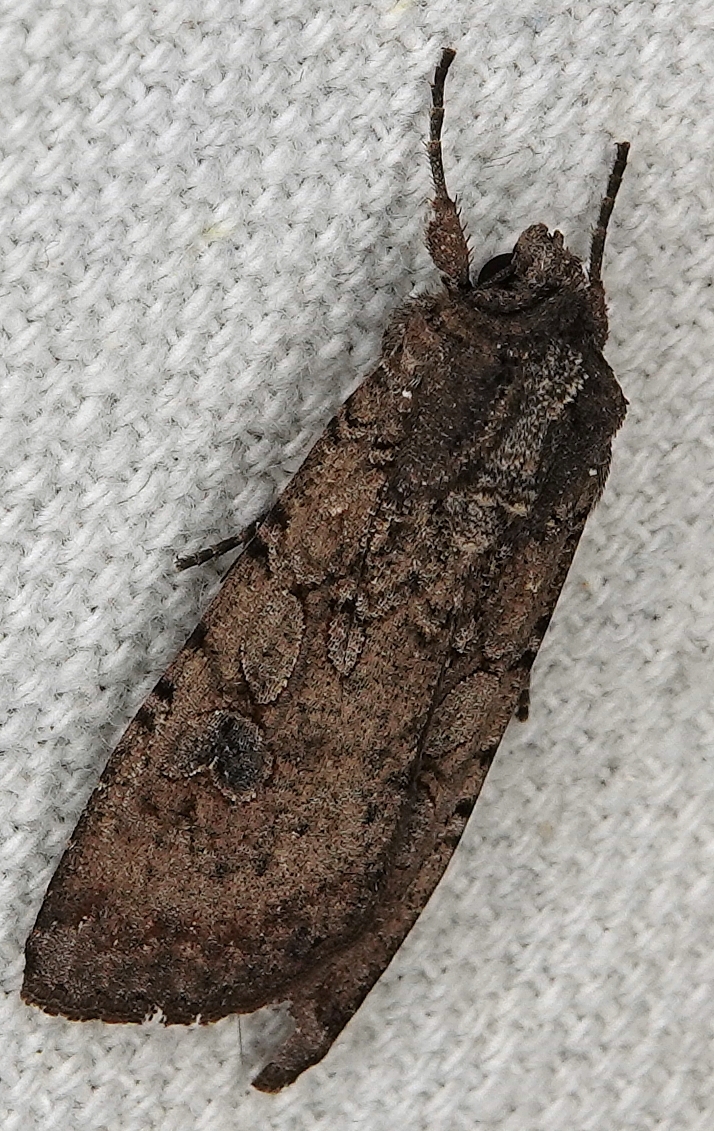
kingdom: Animalia
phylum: Arthropoda
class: Insecta
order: Lepidoptera
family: Noctuidae
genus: Peridroma
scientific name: Peridroma saucia
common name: Pearly underwing
